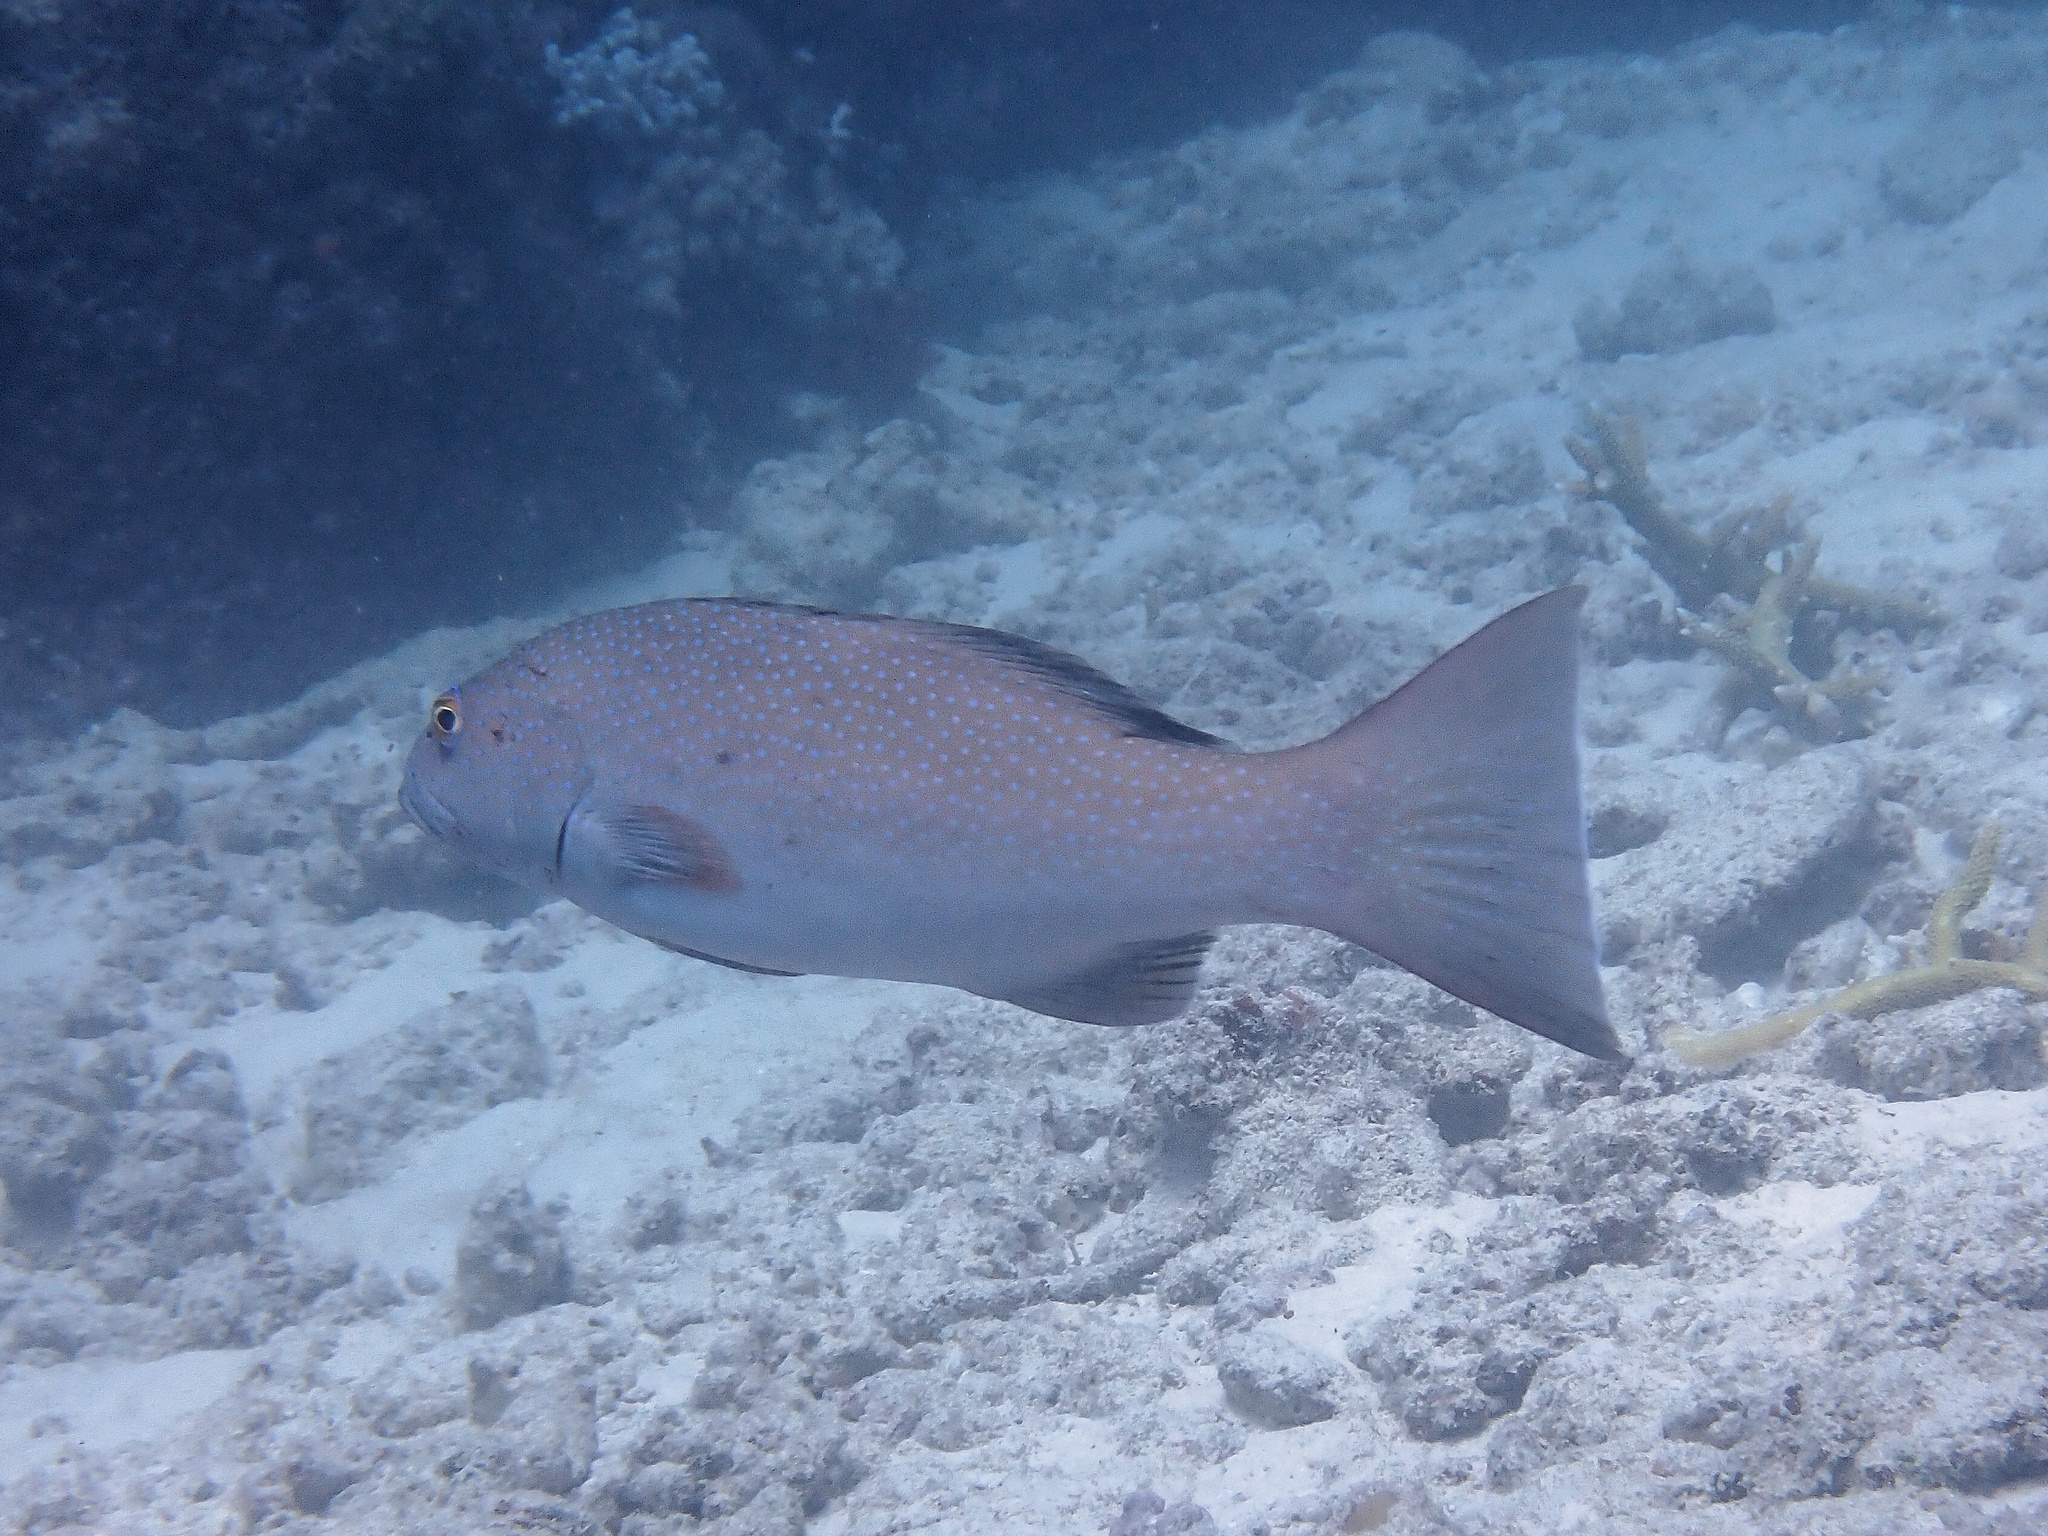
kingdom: Animalia
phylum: Chordata
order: Perciformes
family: Serranidae
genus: Plectropomus
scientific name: Plectropomus leopardus
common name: Coral trout
